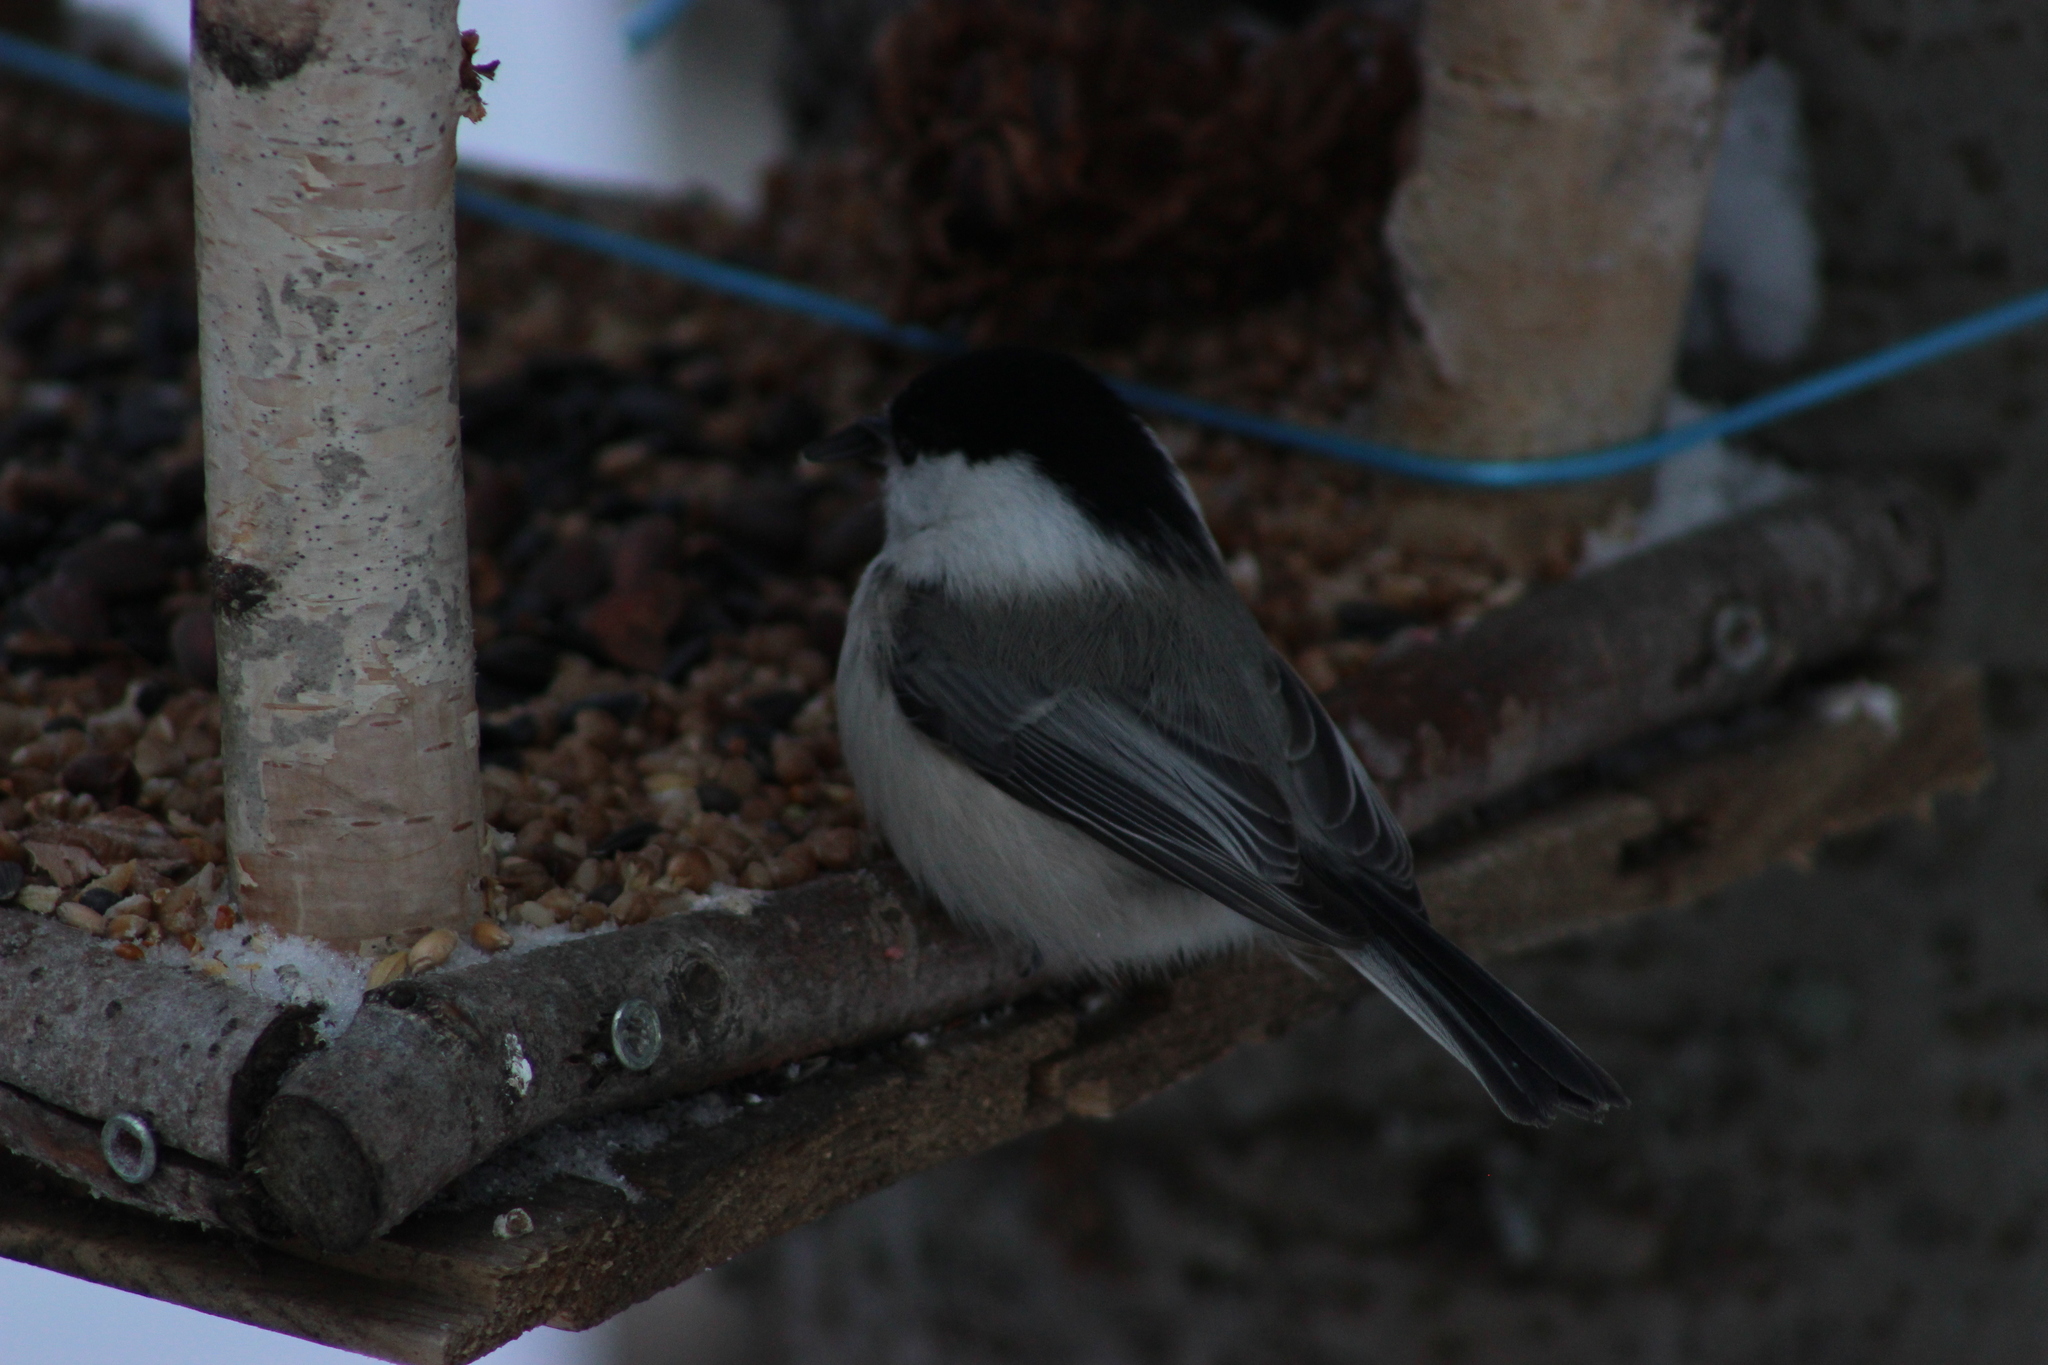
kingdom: Animalia
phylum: Chordata
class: Aves
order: Passeriformes
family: Paridae
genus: Poecile
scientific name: Poecile montanus
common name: Willow tit
